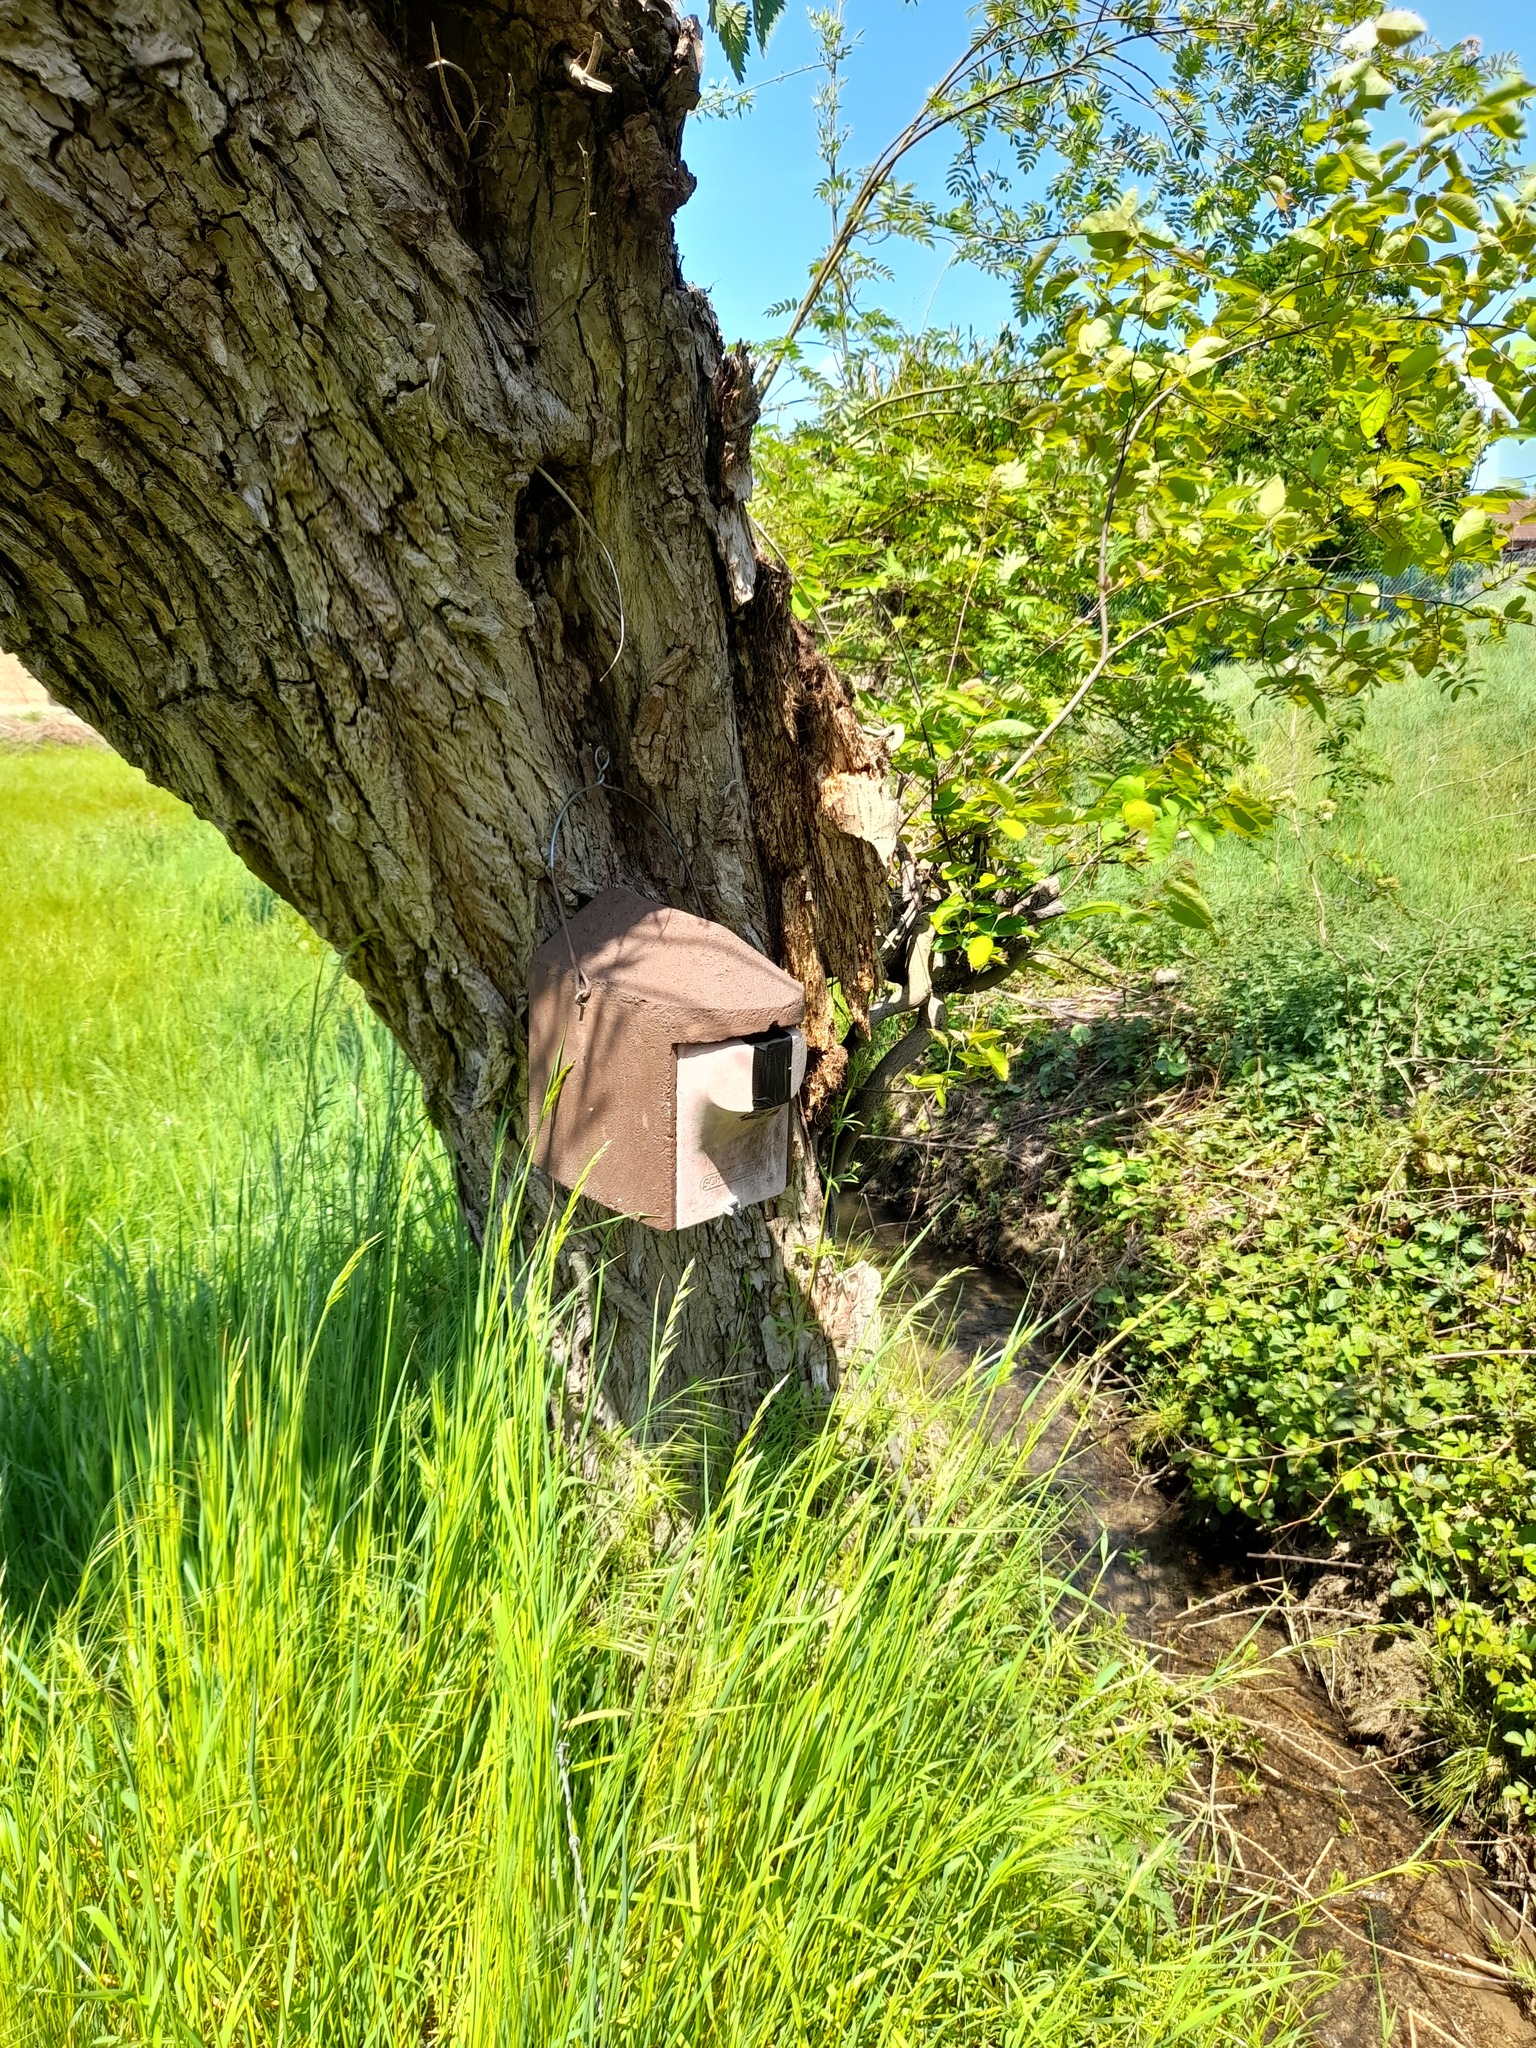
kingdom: Animalia
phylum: Arthropoda
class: Insecta
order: Hymenoptera
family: Vespidae
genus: Vespa
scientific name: Vespa crabro
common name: Hornet
